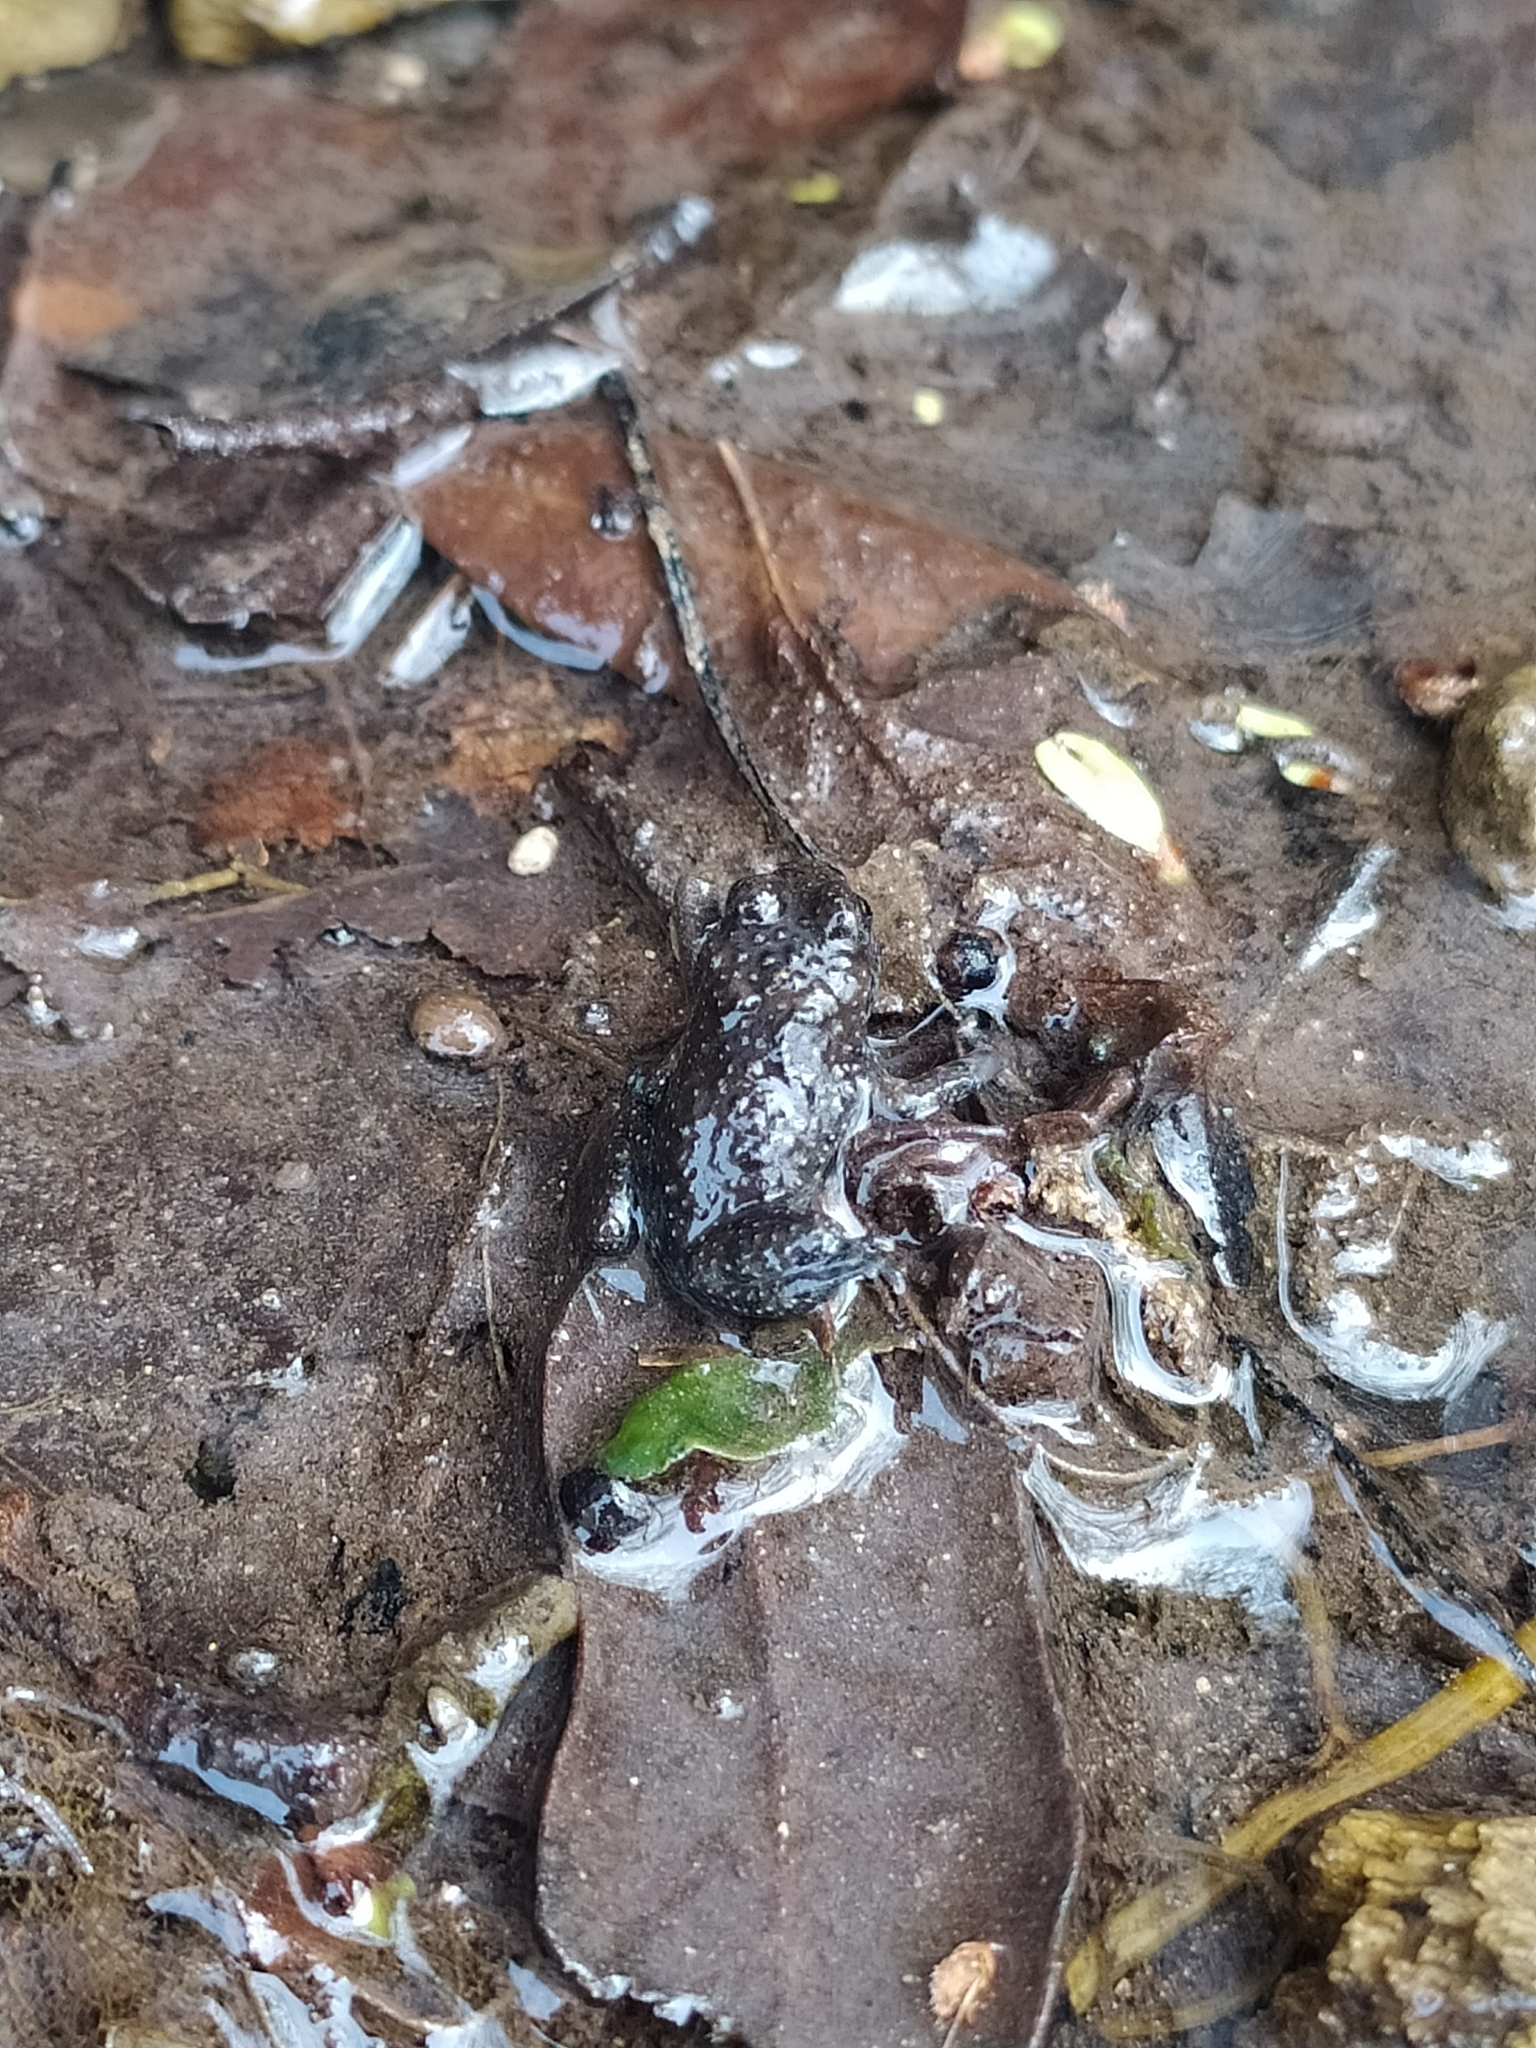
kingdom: Animalia
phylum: Chordata
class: Amphibia
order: Anura
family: Bombinatoridae
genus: Bombina
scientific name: Bombina variegata
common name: Yellow-bellied toad
